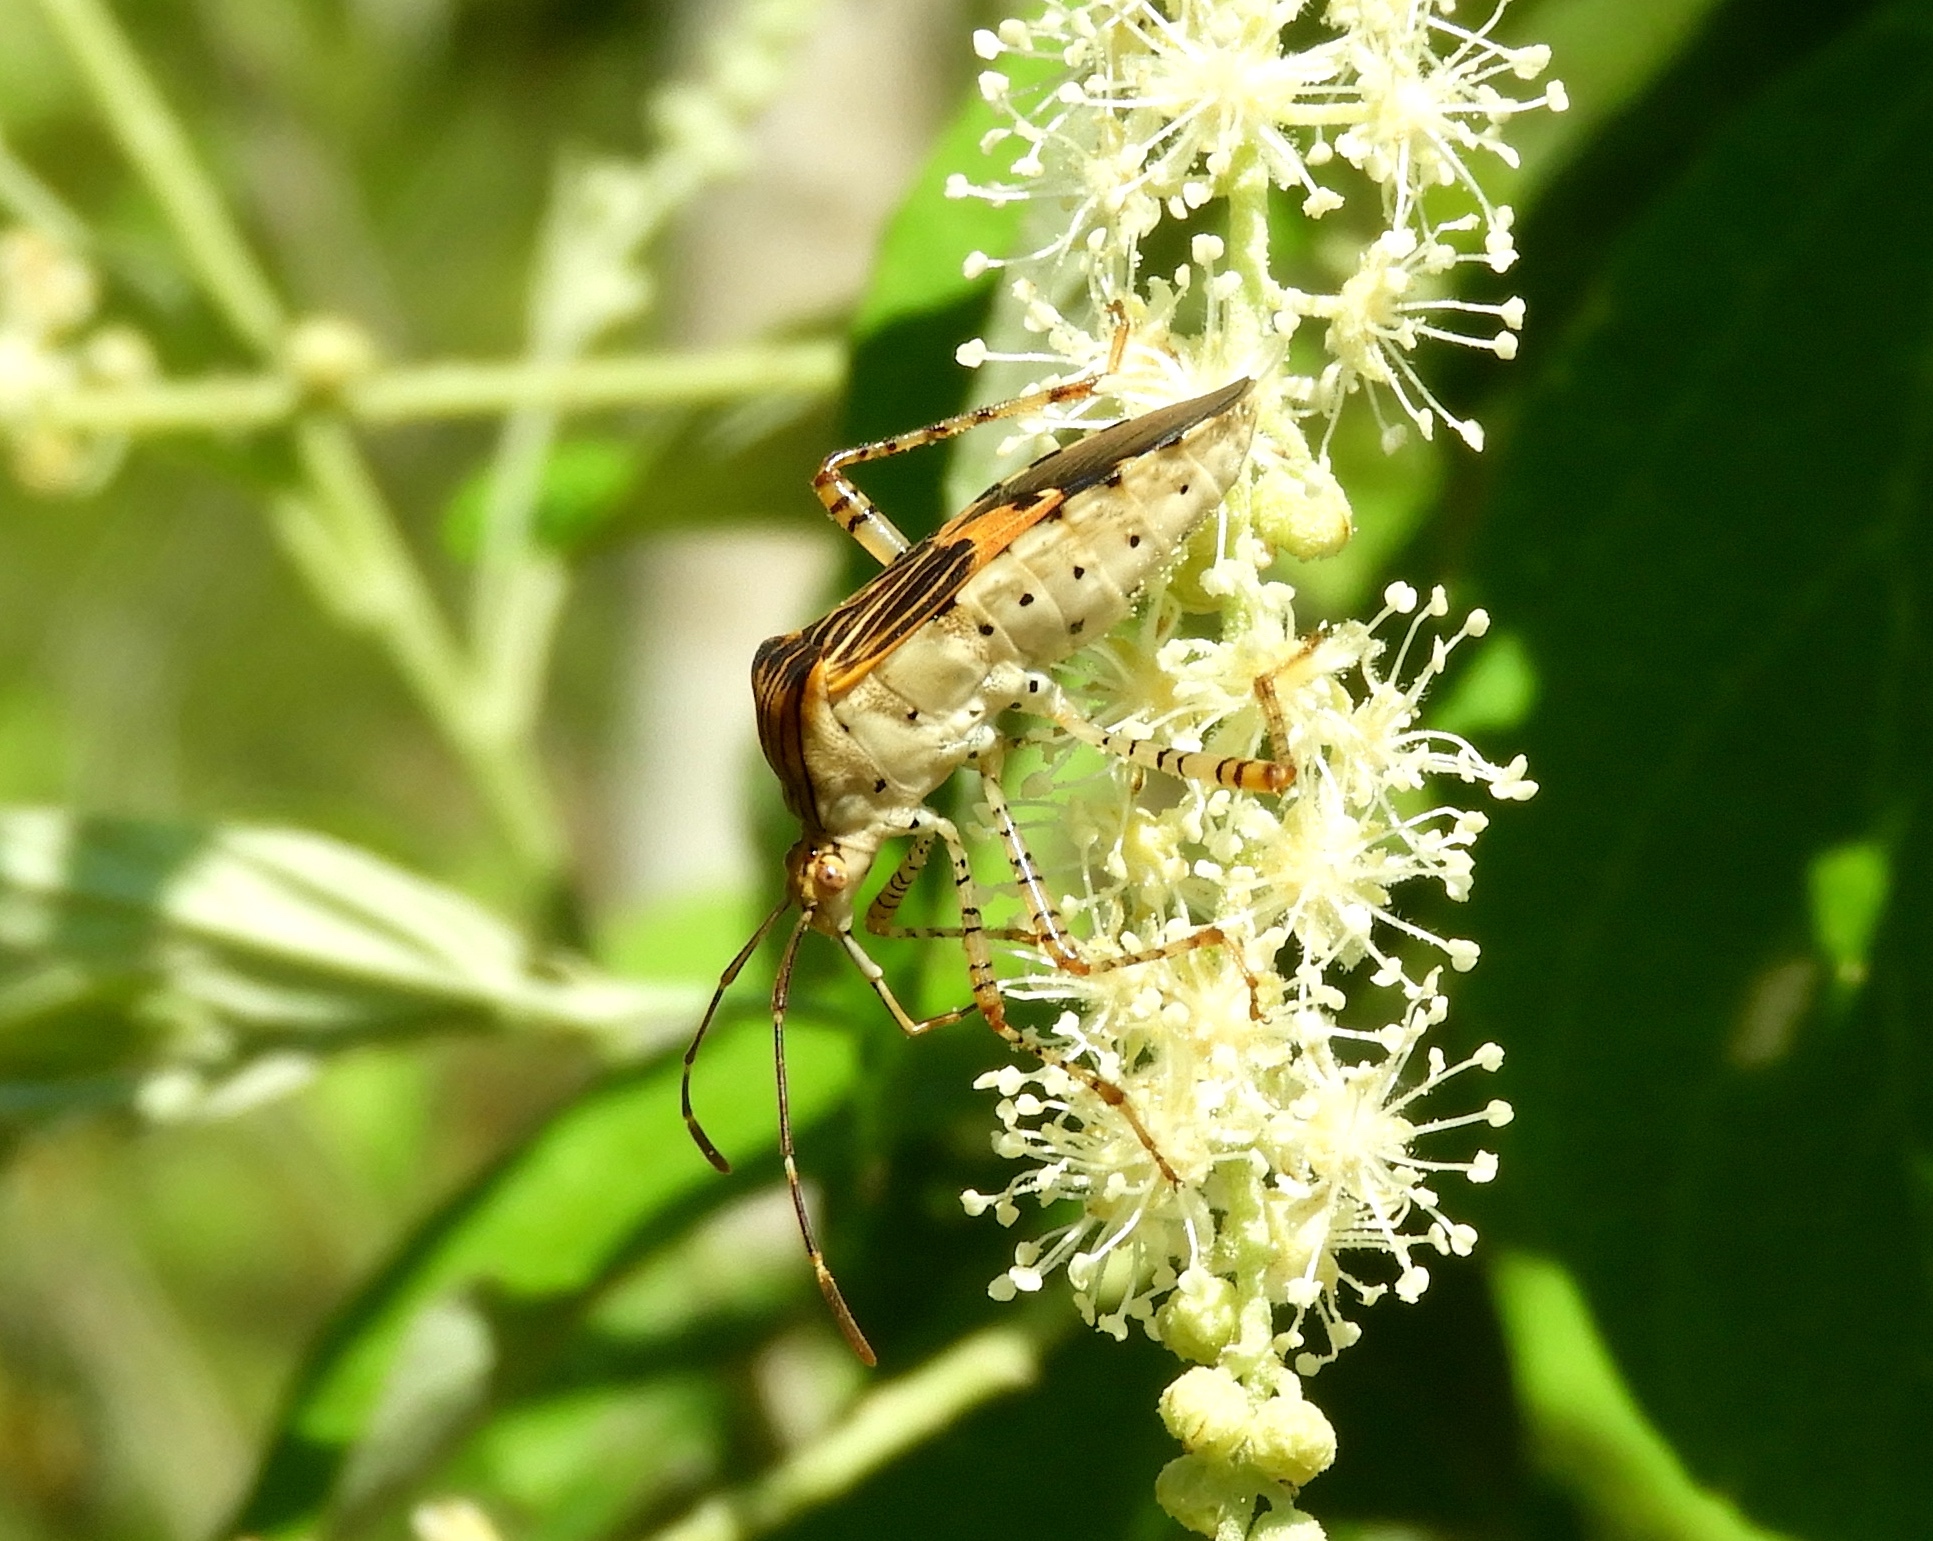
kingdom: Animalia
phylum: Arthropoda
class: Insecta
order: Hemiptera
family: Coreidae
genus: Hypselonotus
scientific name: Hypselonotus punctiventris
